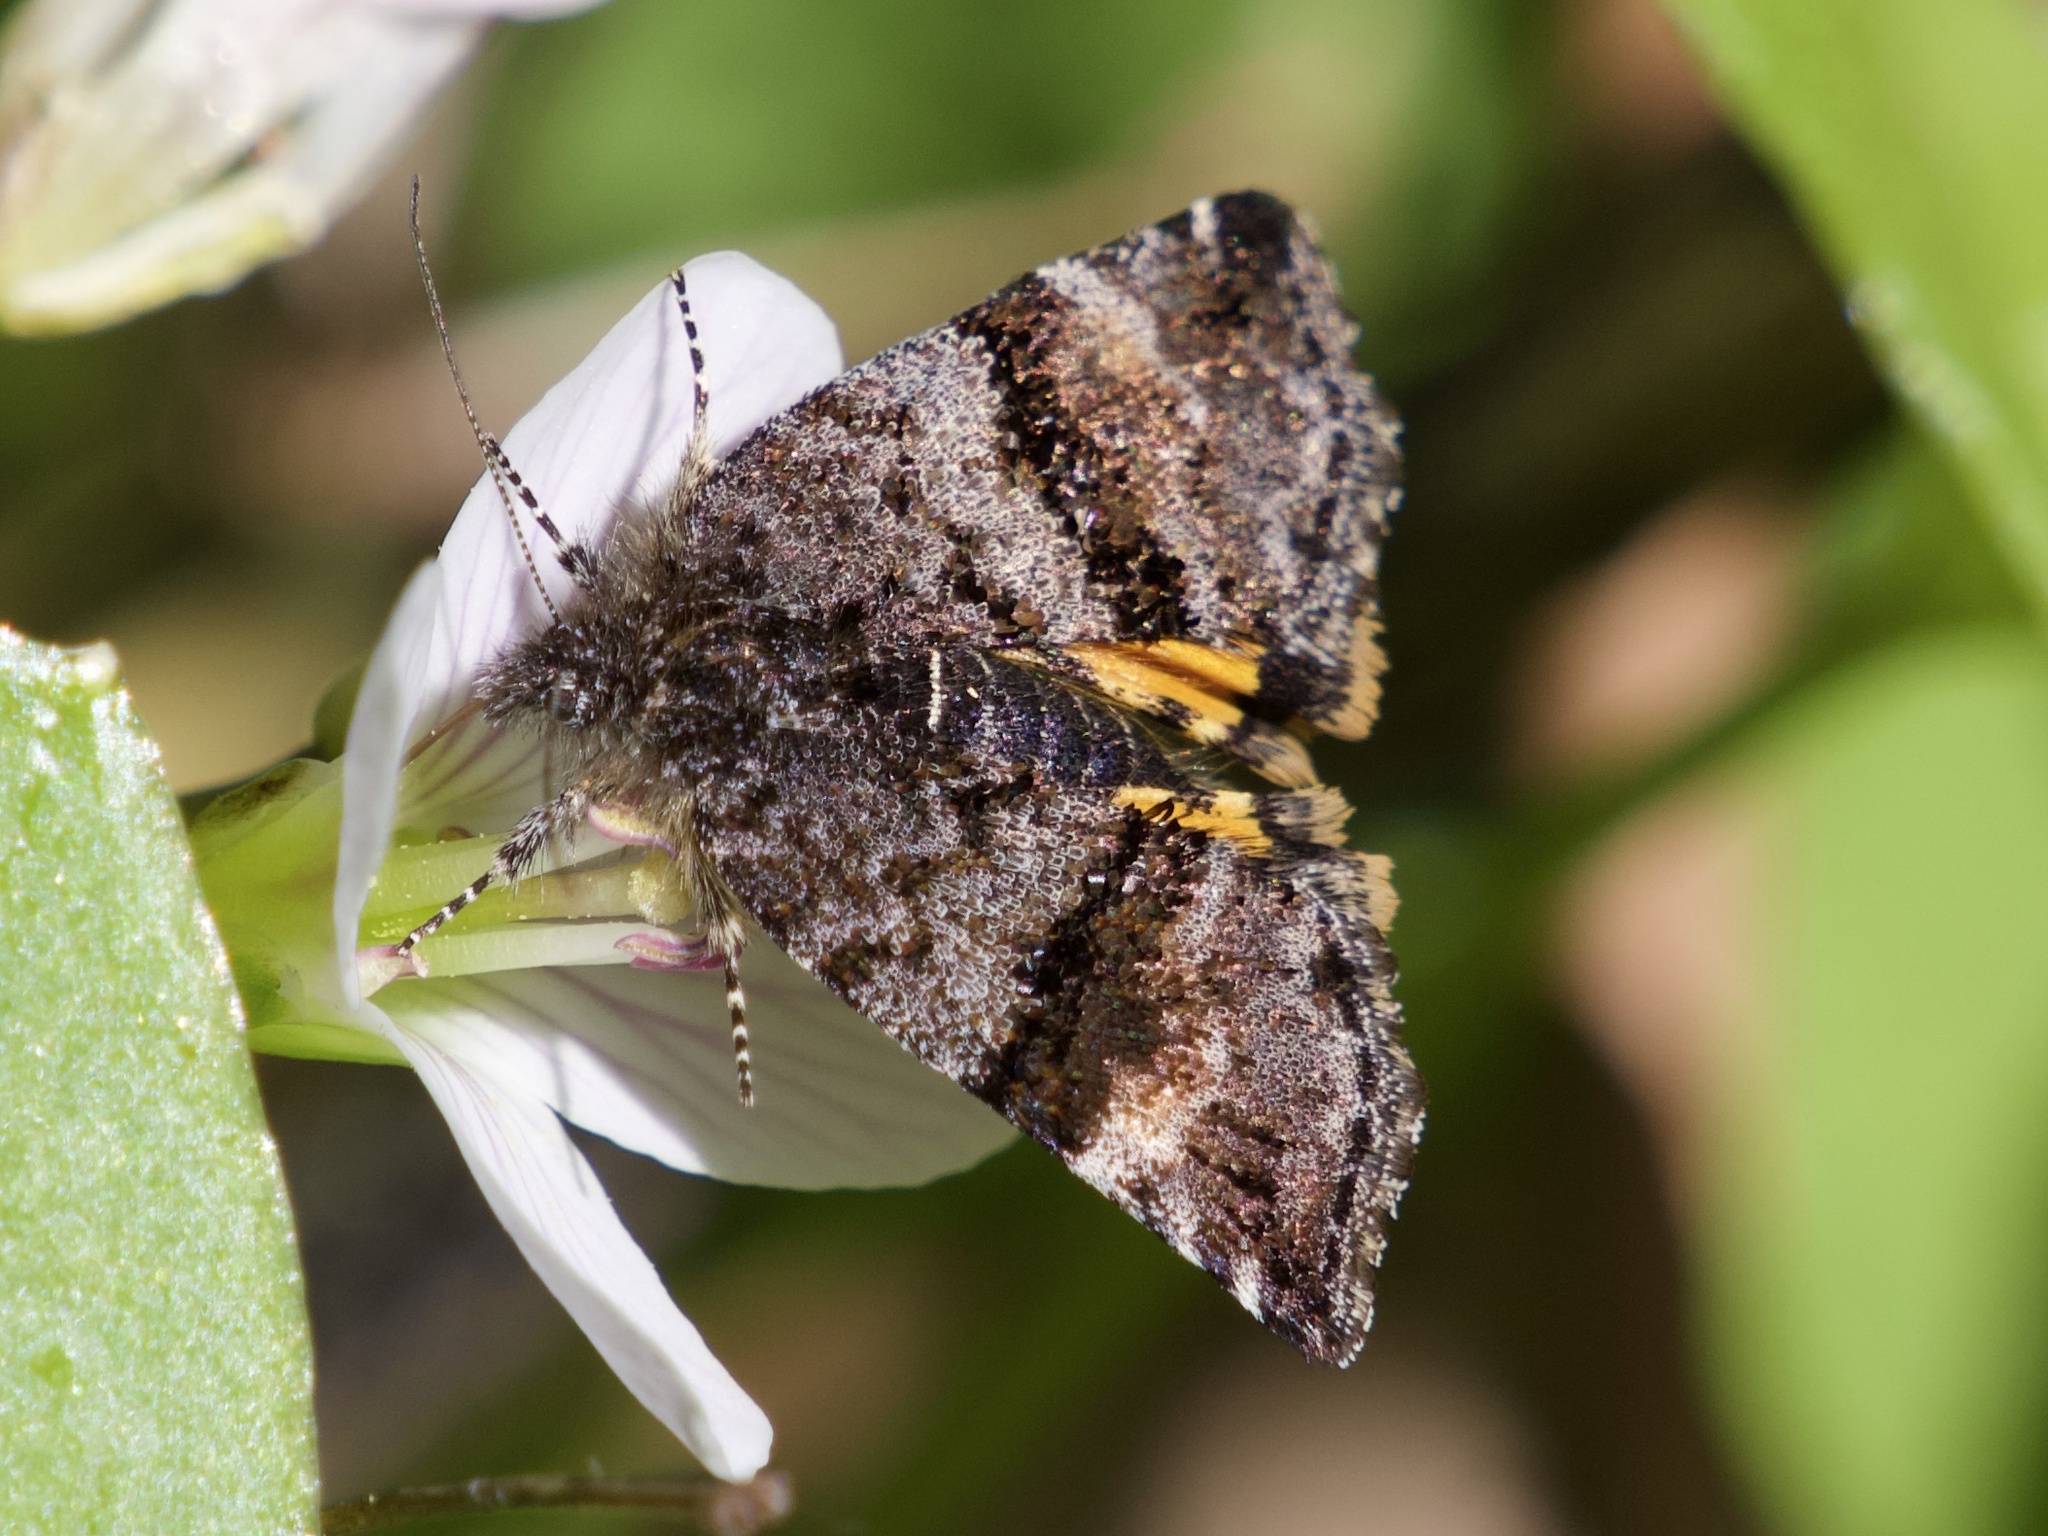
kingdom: Animalia
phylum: Arthropoda
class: Insecta
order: Lepidoptera
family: Noctuidae
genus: Annaphila
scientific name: Annaphila depicta
